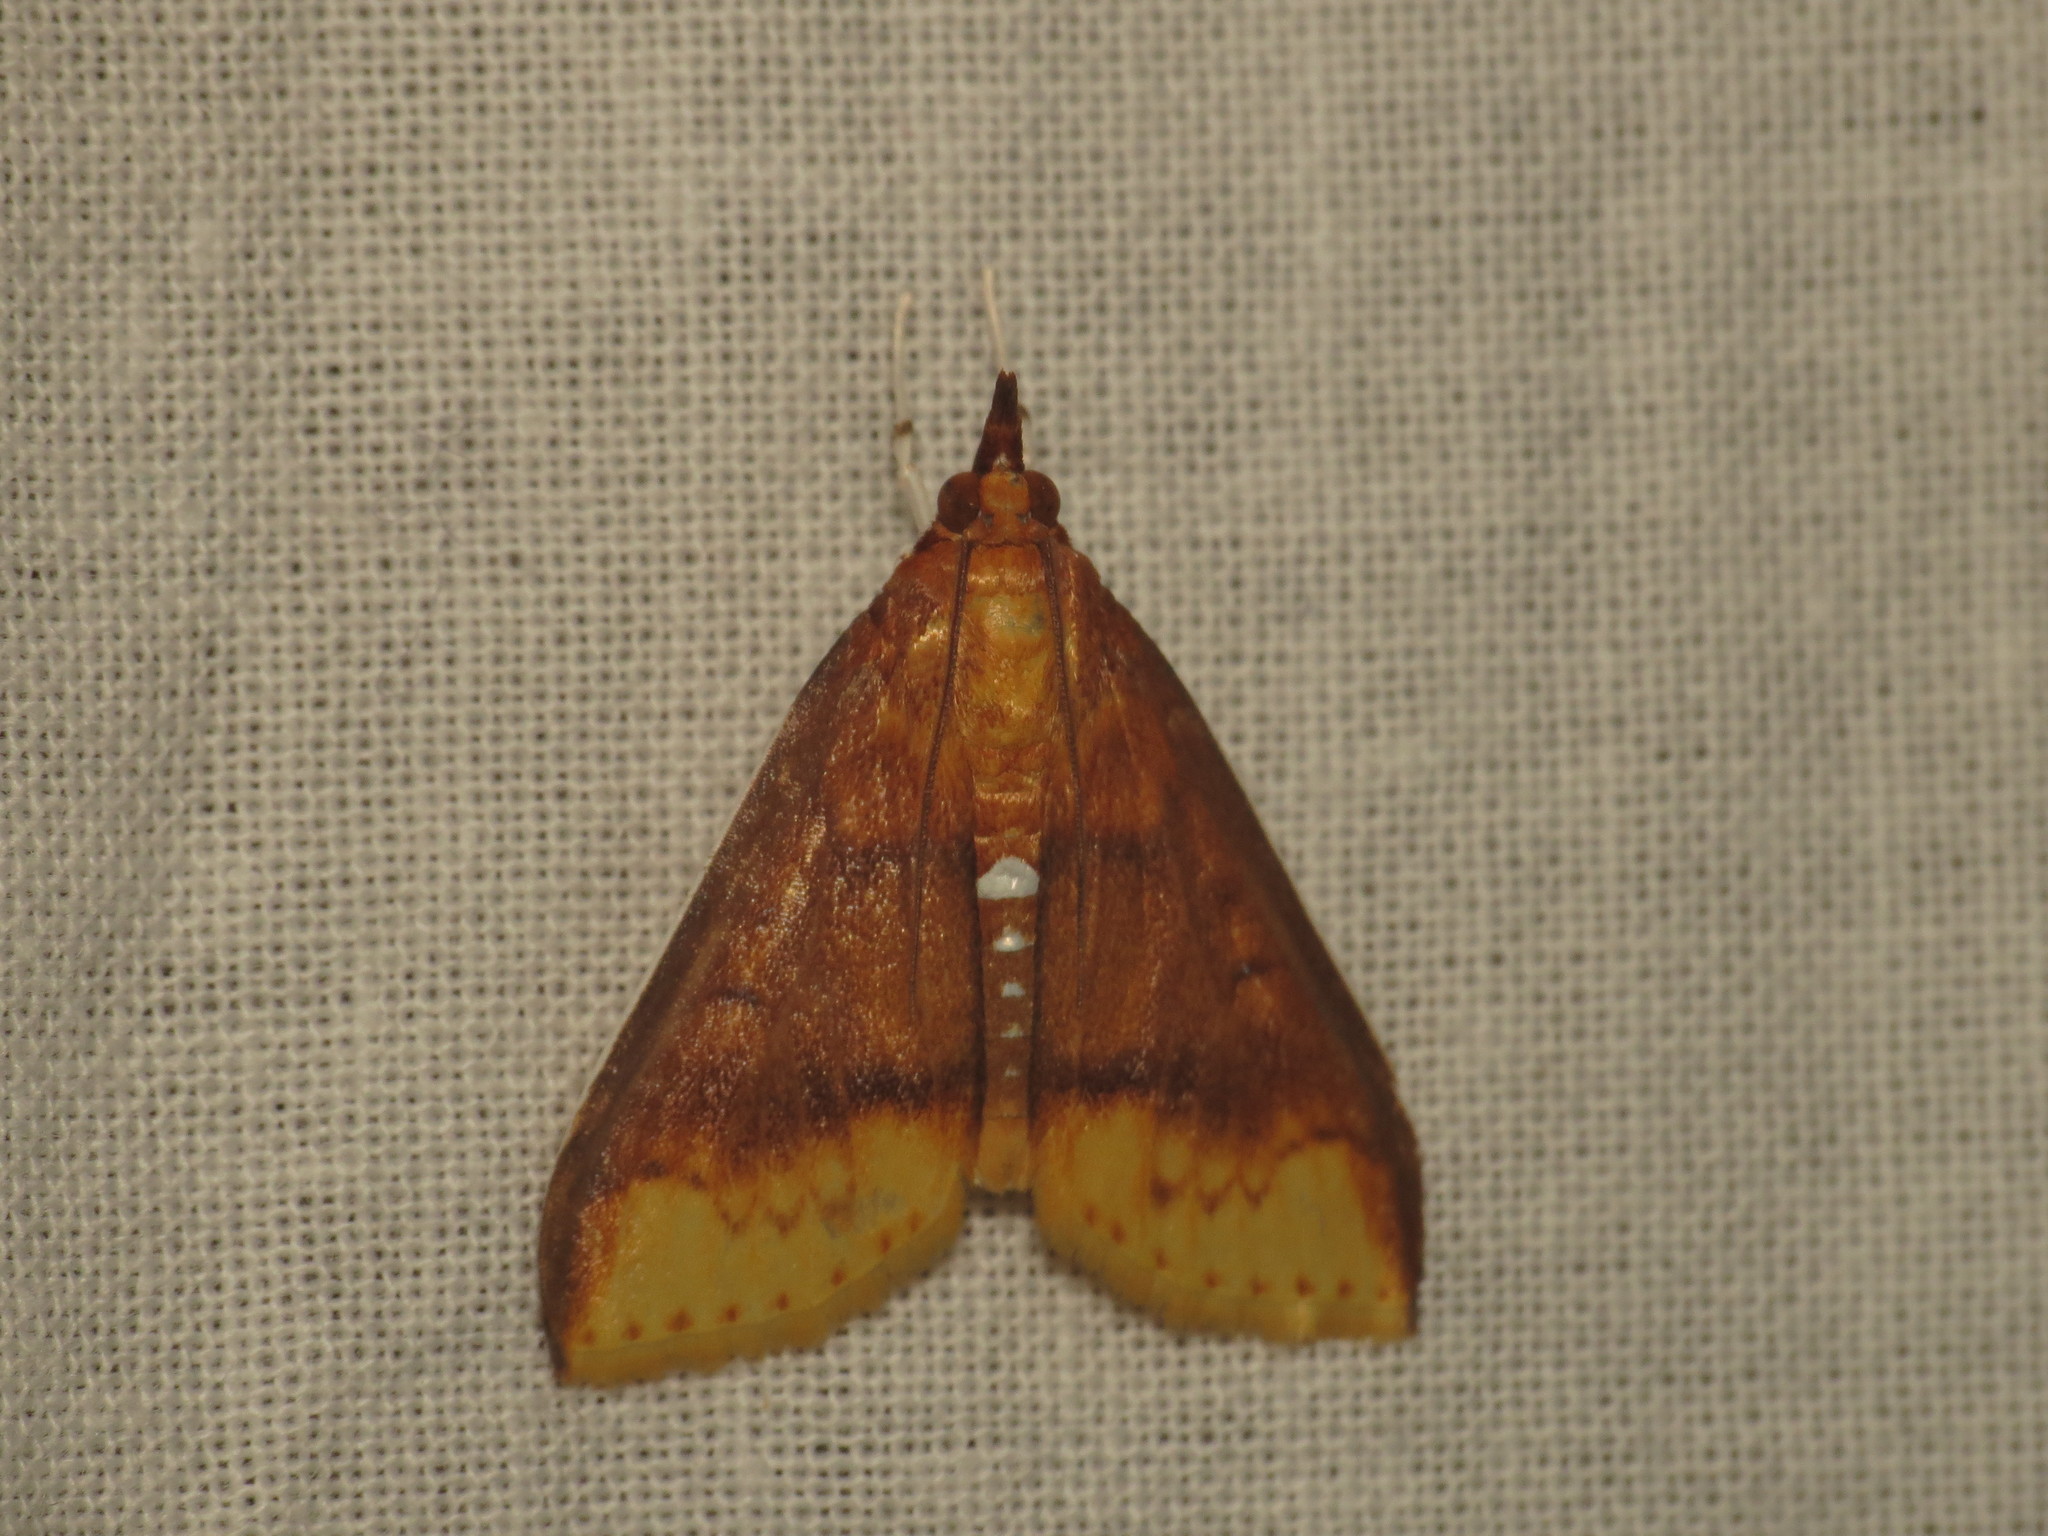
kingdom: Animalia
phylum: Arthropoda
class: Insecta
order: Lepidoptera
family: Crambidae
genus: Lipararchis
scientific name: Lipararchis tranquillalis
